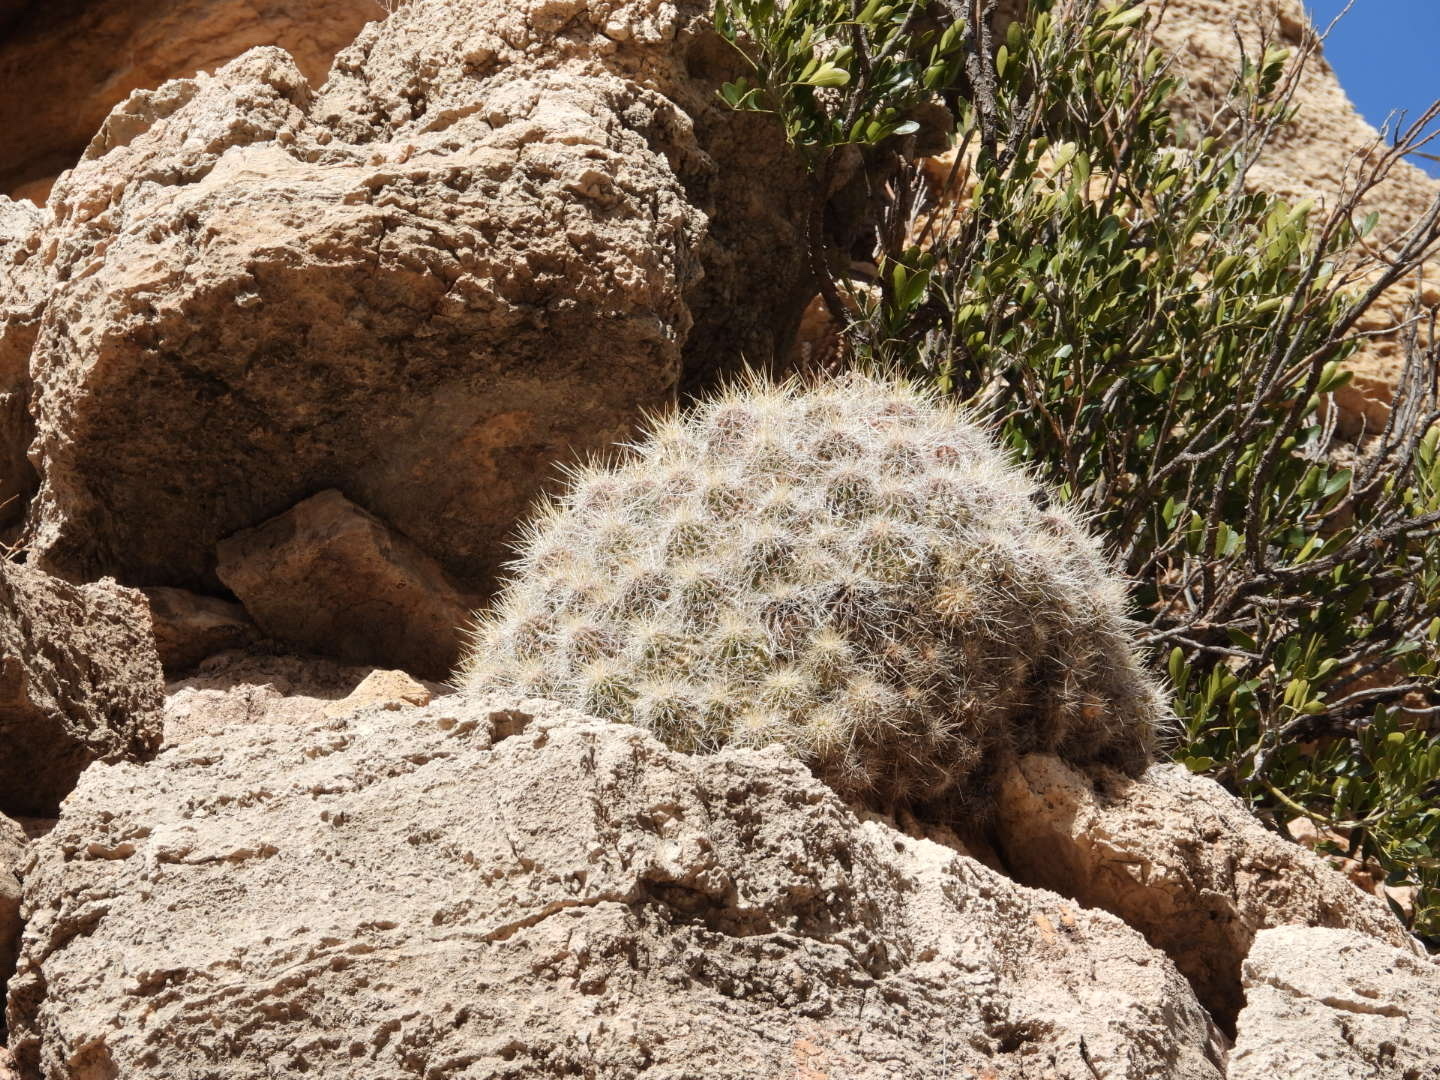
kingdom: Plantae
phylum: Tracheophyta
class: Magnoliopsida
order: Caryophyllales
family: Cactaceae
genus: Echinocereus
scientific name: Echinocereus stramineus
